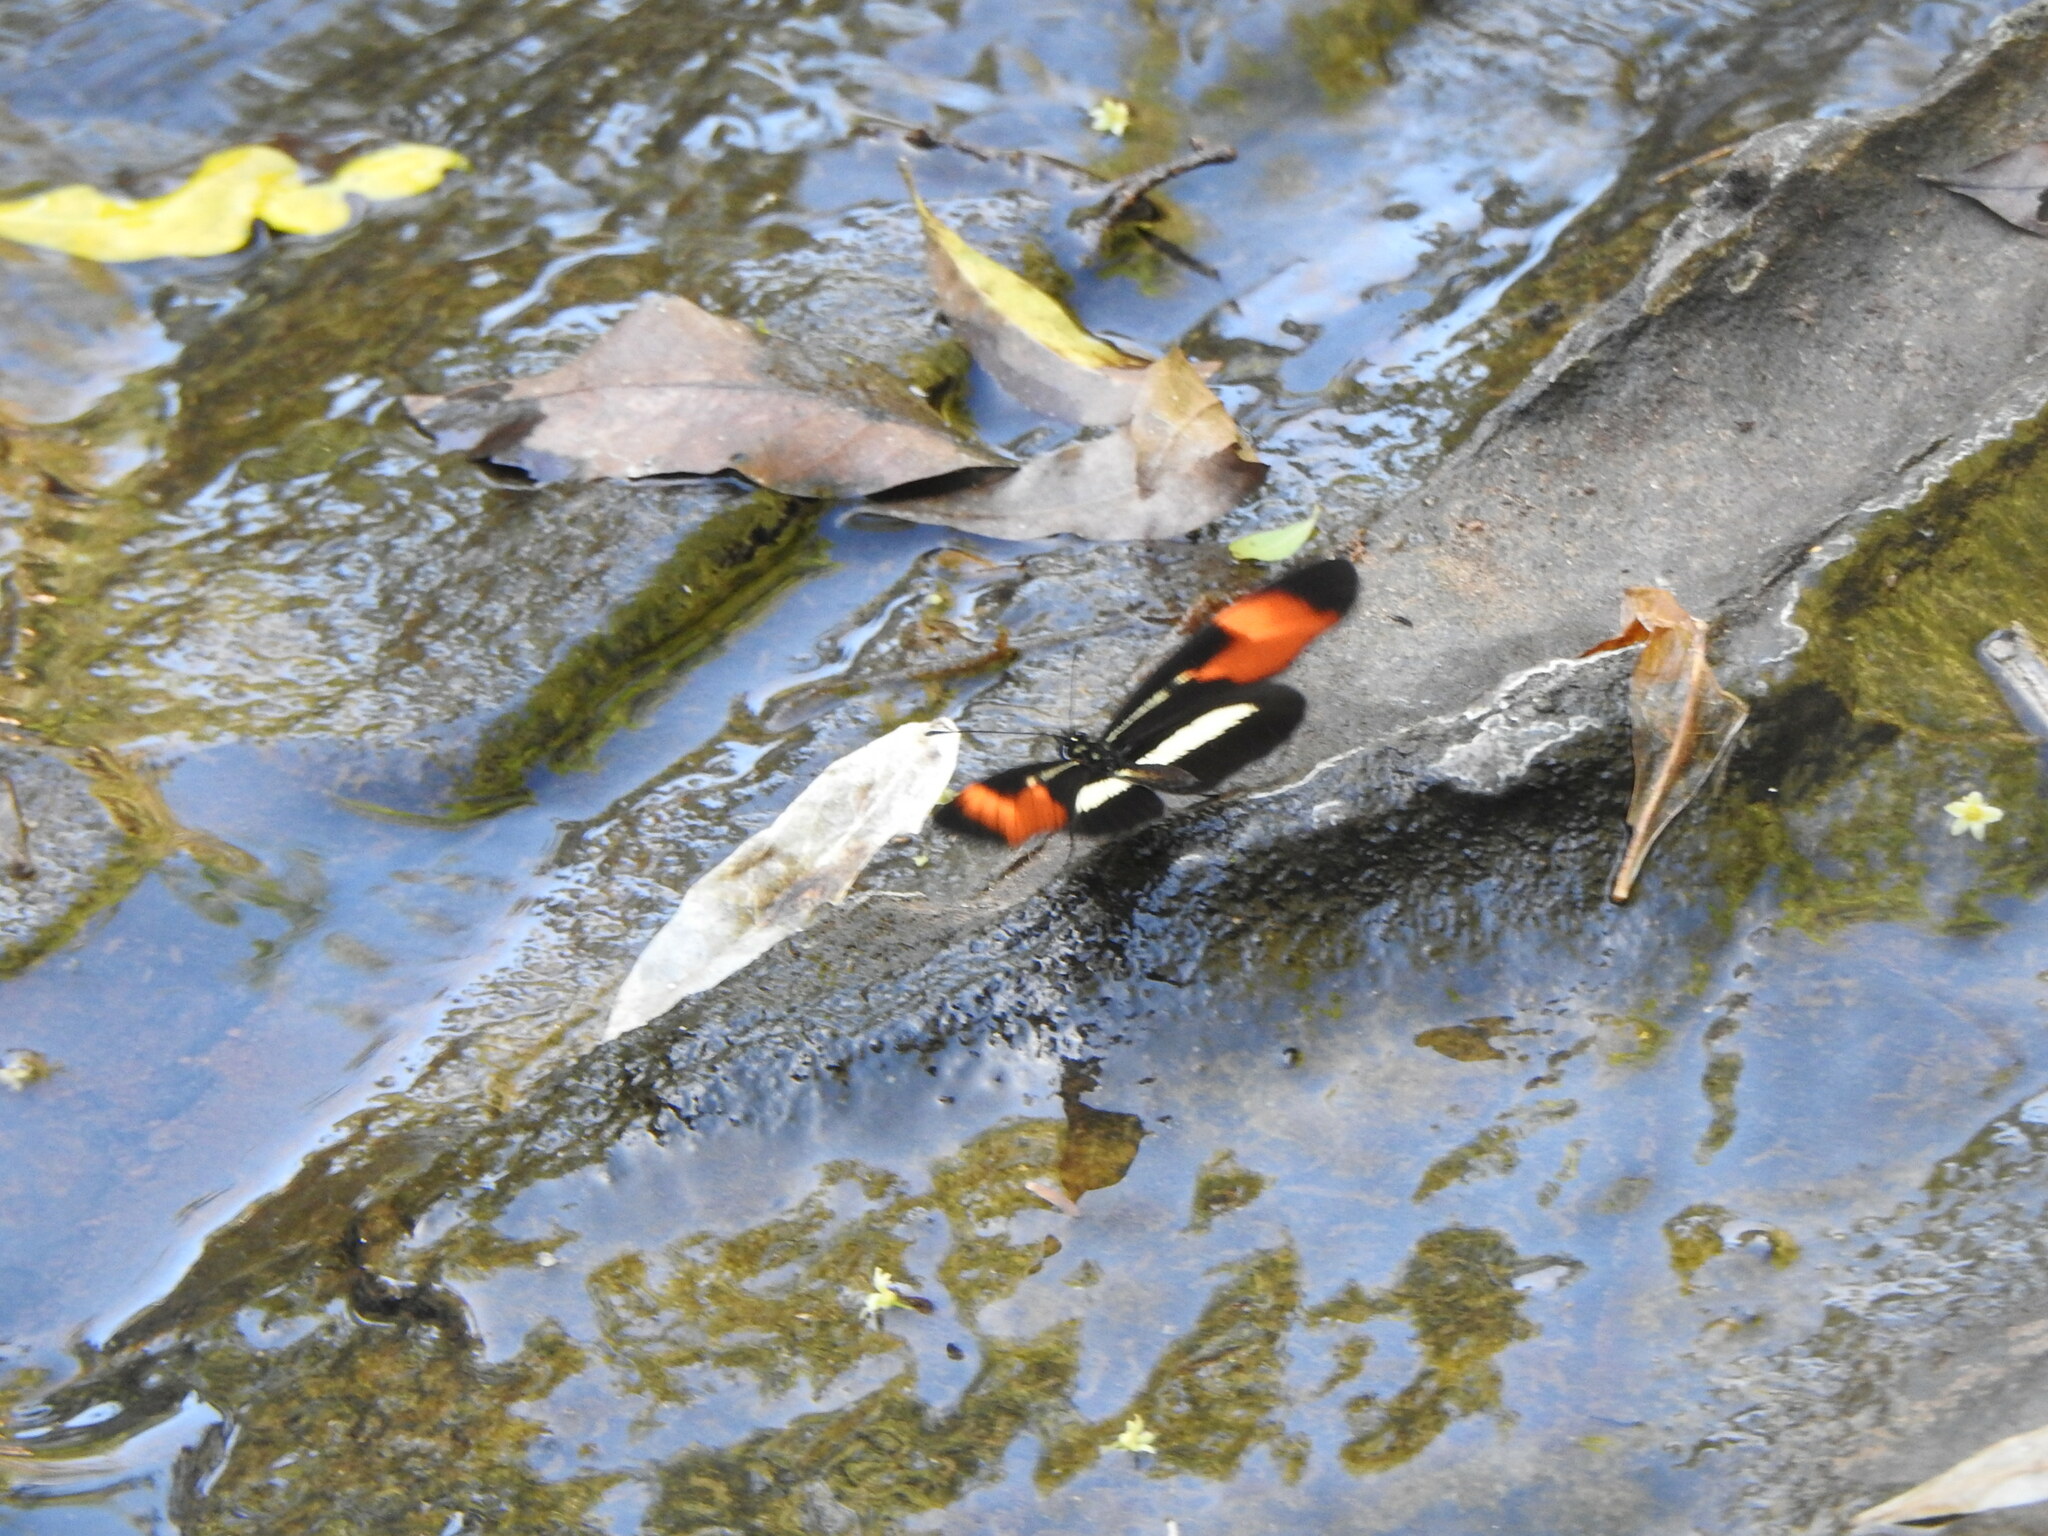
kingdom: Animalia
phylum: Arthropoda
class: Insecta
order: Lepidoptera
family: Nymphalidae
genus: Eresia
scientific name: Eresia lansdorfi
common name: Lansdorf's crescent
